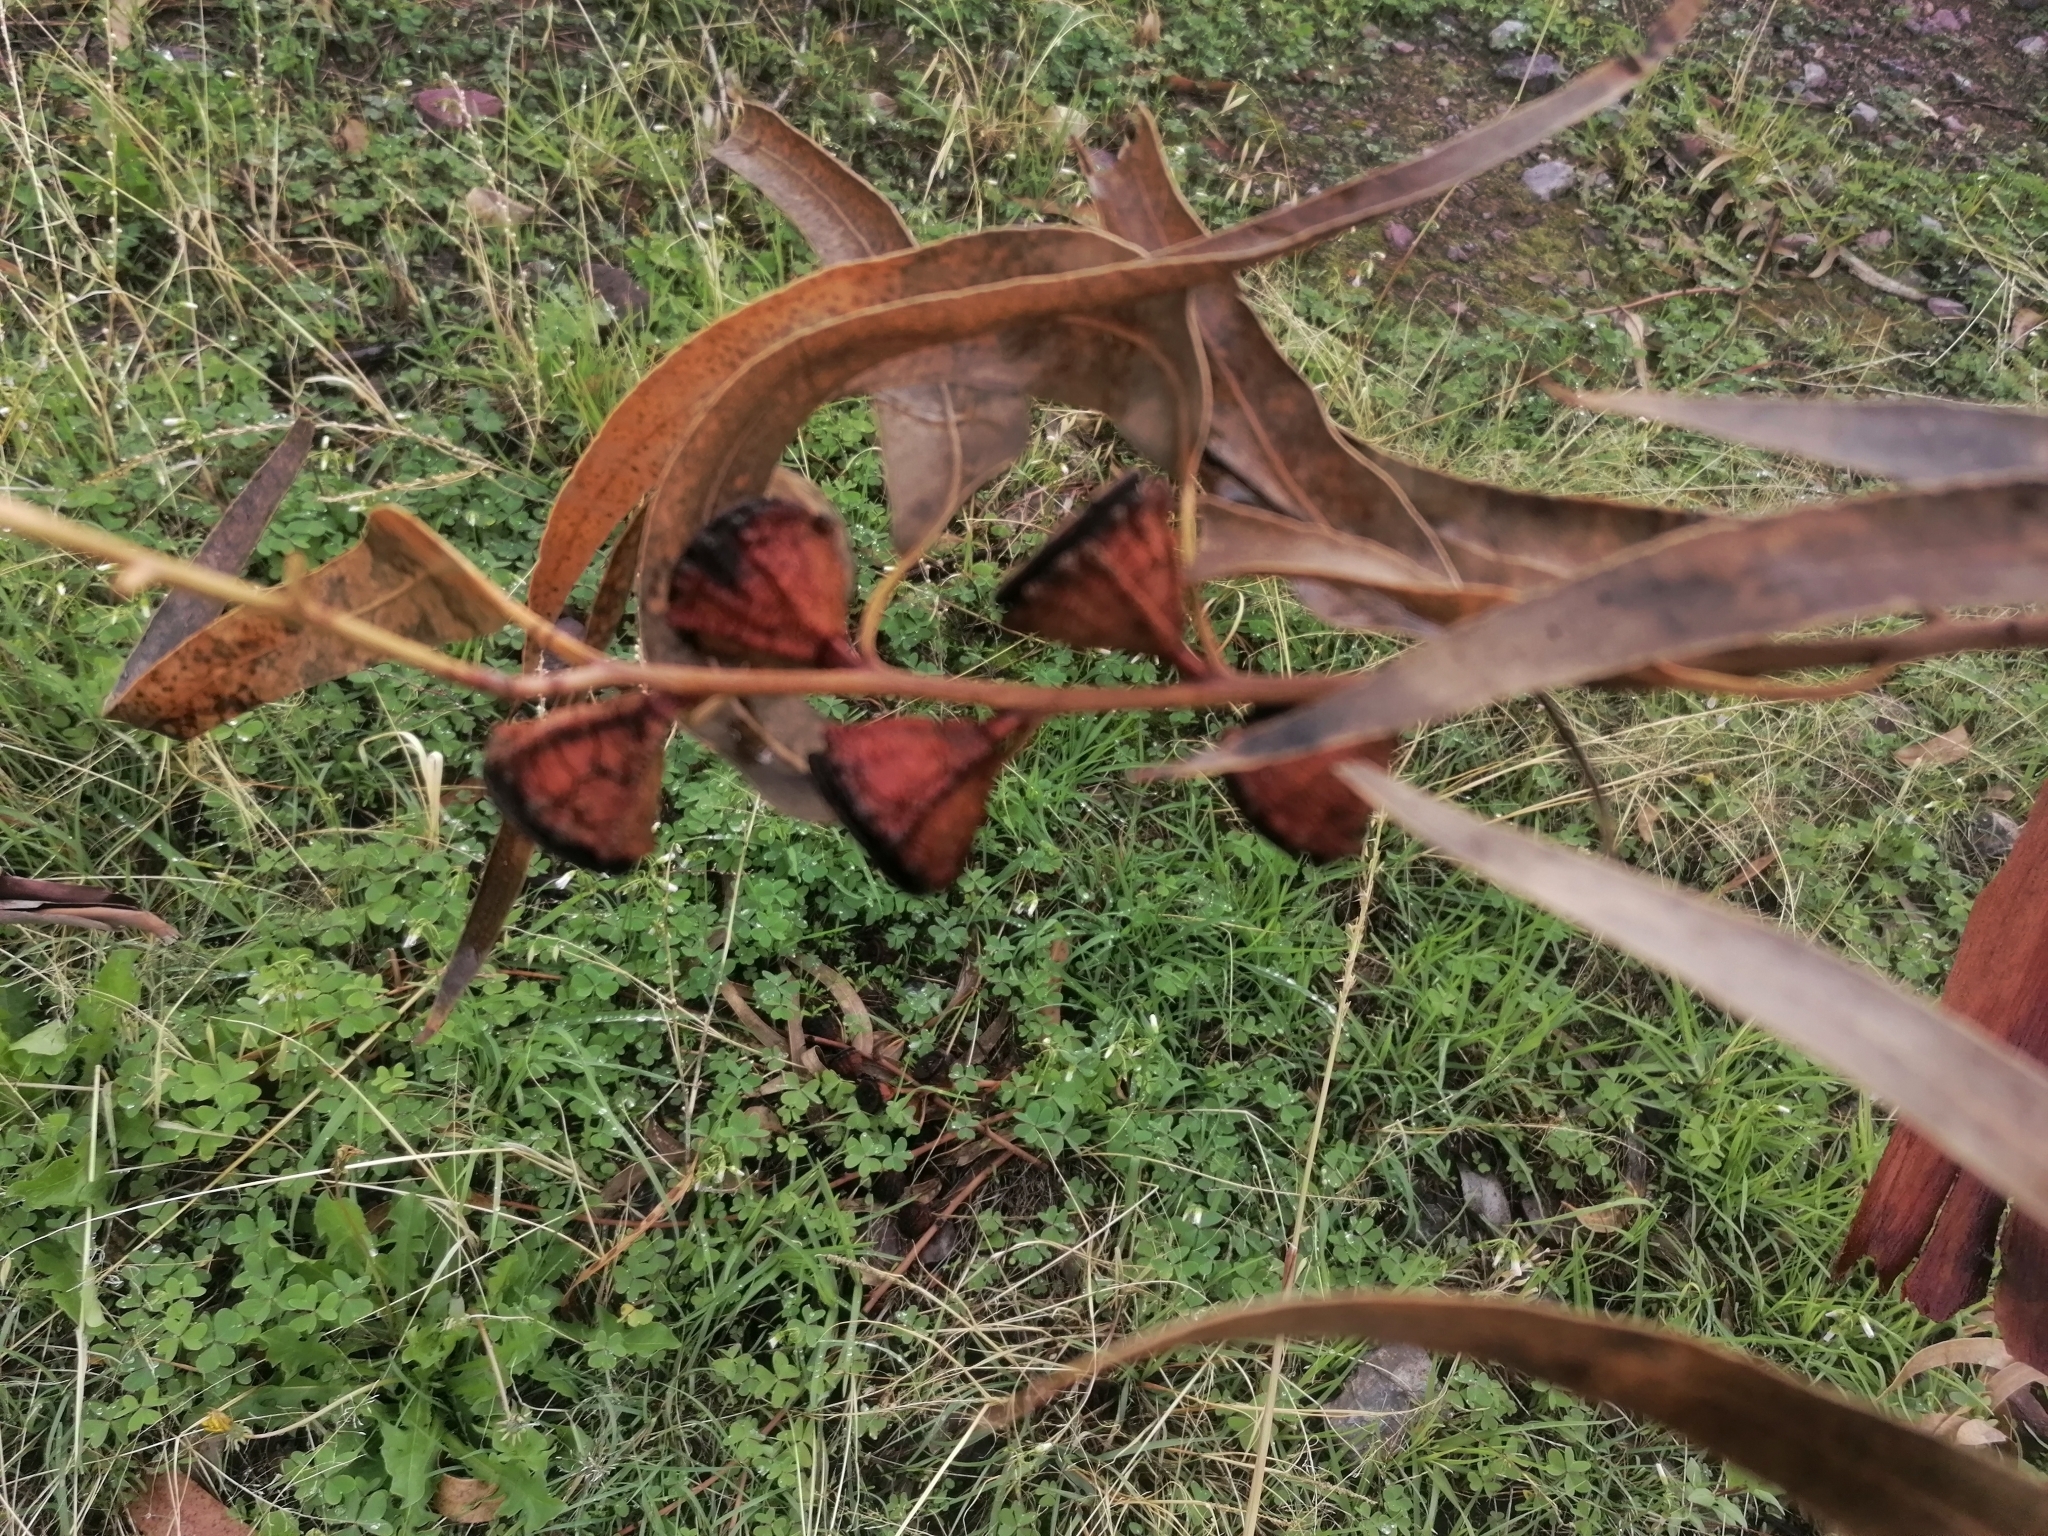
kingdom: Plantae
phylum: Tracheophyta
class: Magnoliopsida
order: Myrtales
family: Myrtaceae
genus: Eucalyptus
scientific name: Eucalyptus globulus
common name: Southern blue-gum
